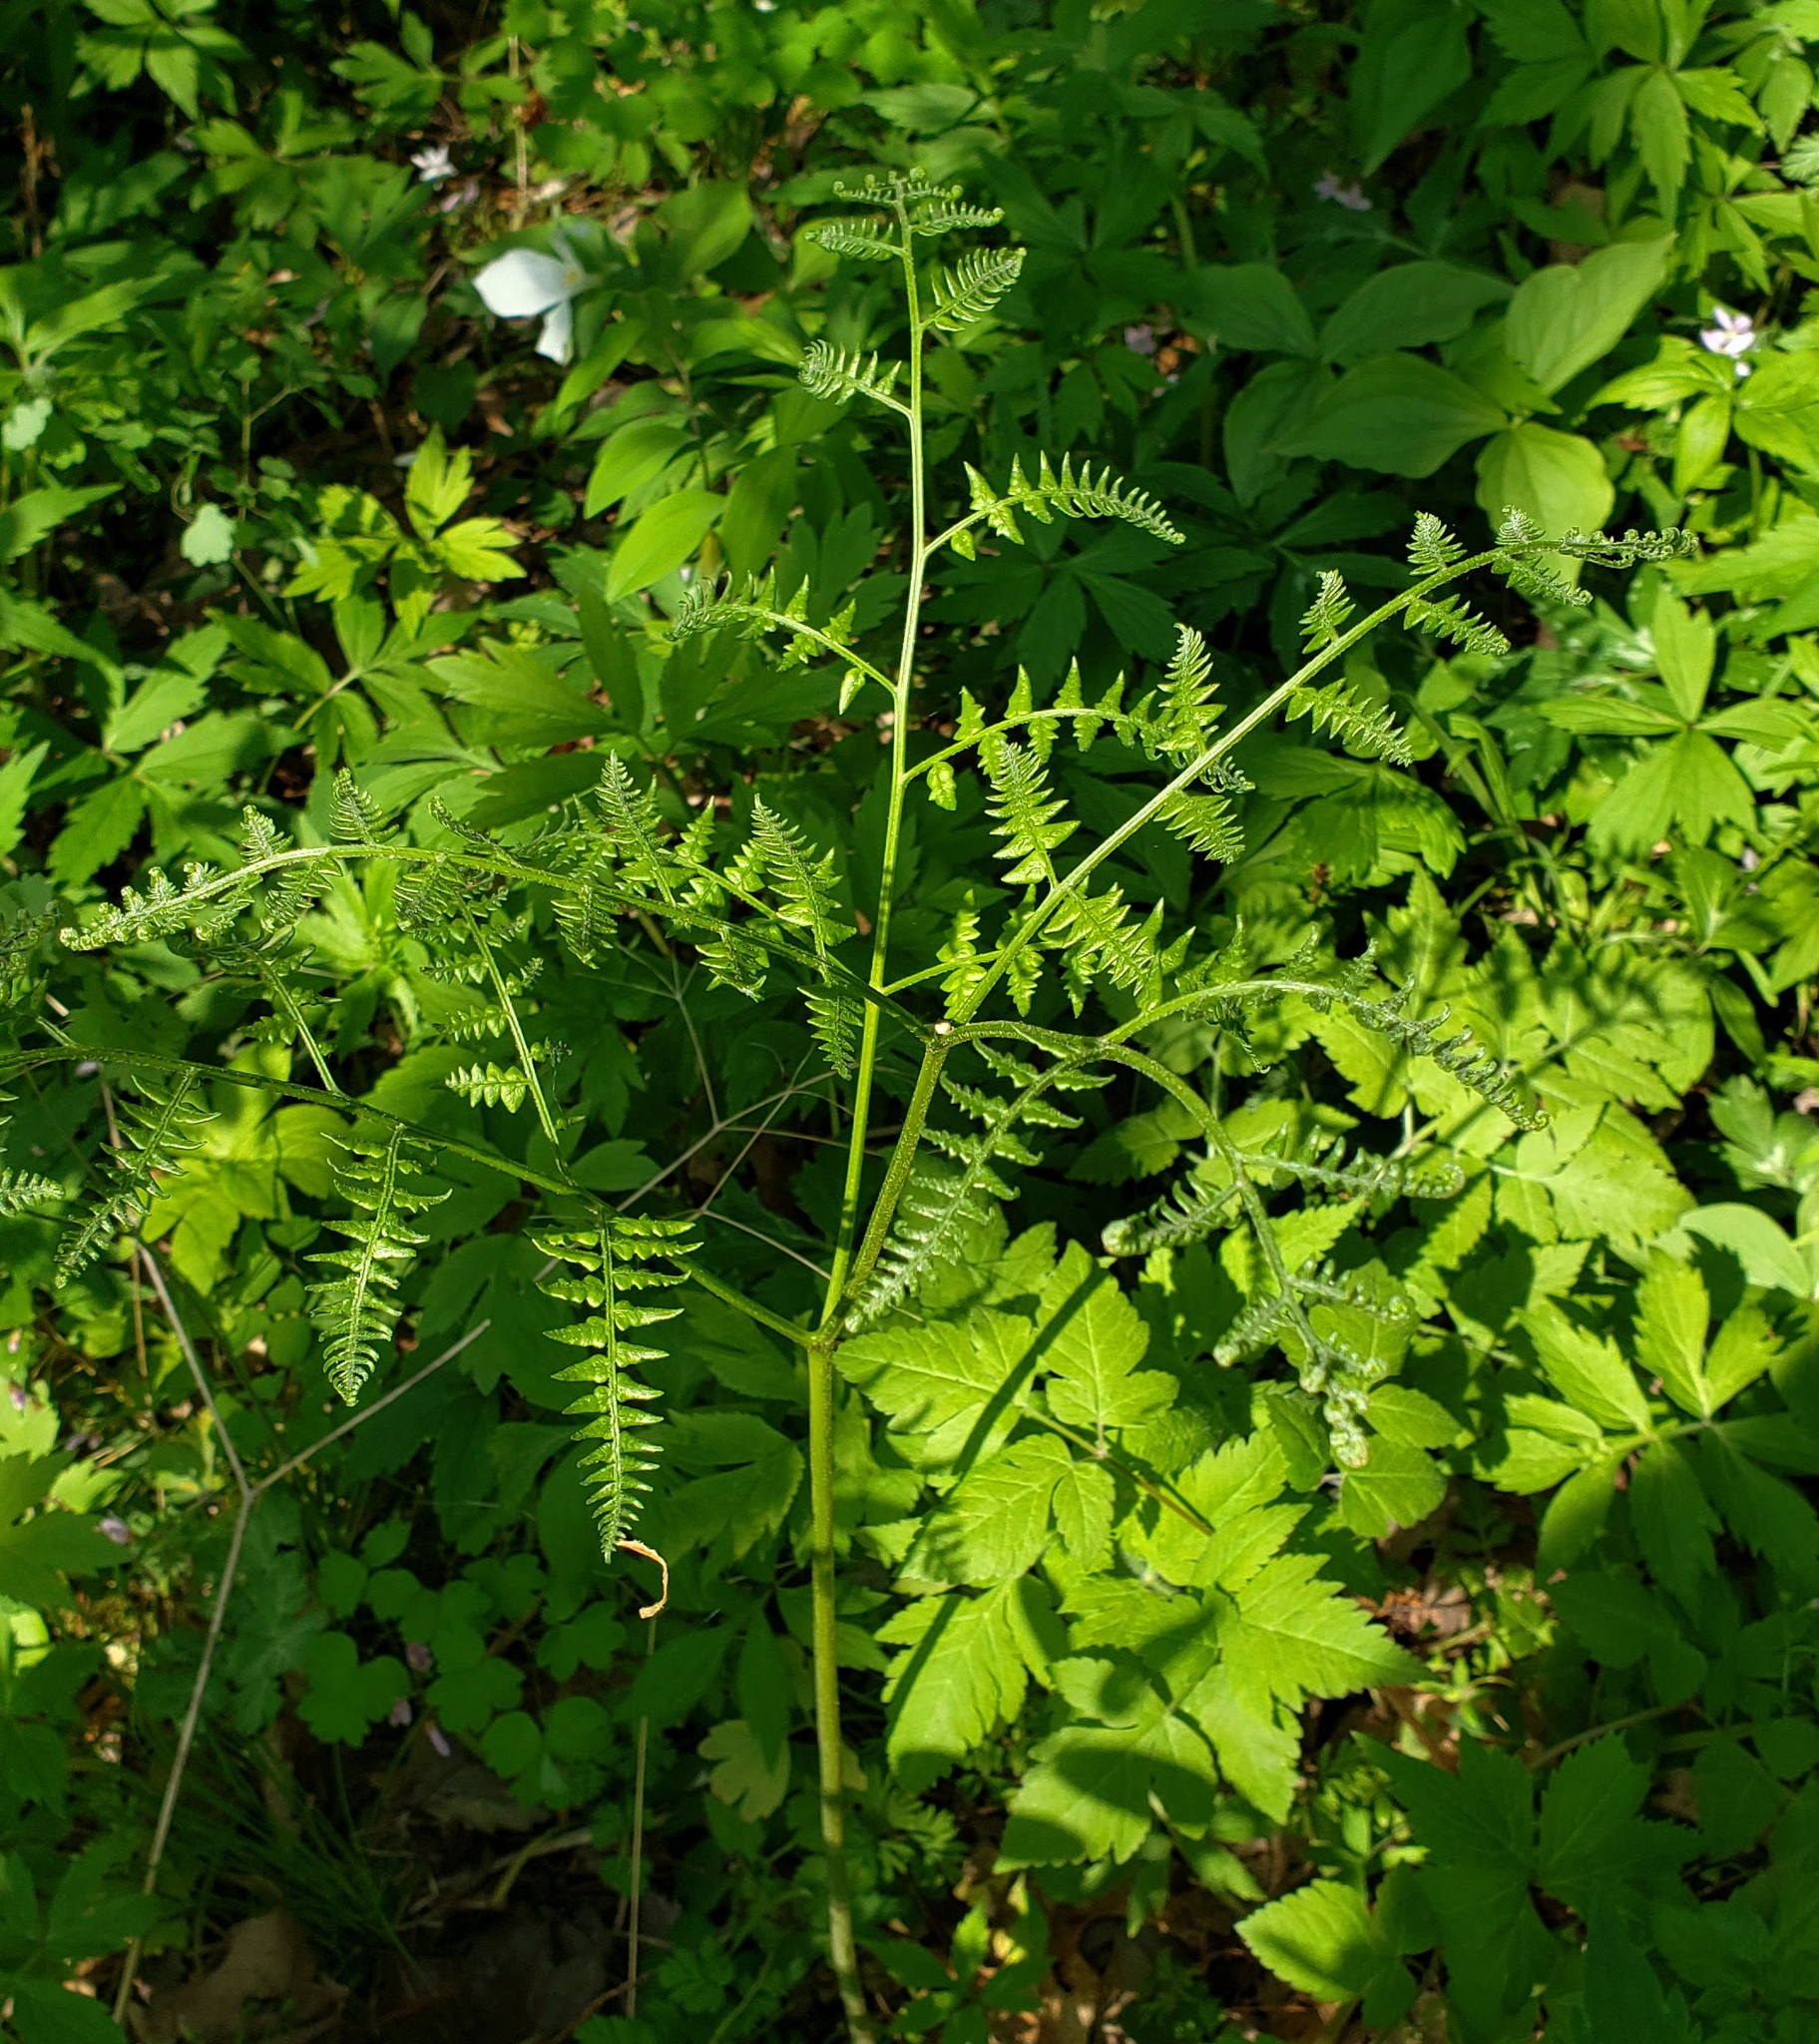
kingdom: Plantae
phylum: Tracheophyta
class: Polypodiopsida
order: Polypodiales
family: Dennstaedtiaceae
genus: Pteridium
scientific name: Pteridium aquilinum
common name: Bracken
